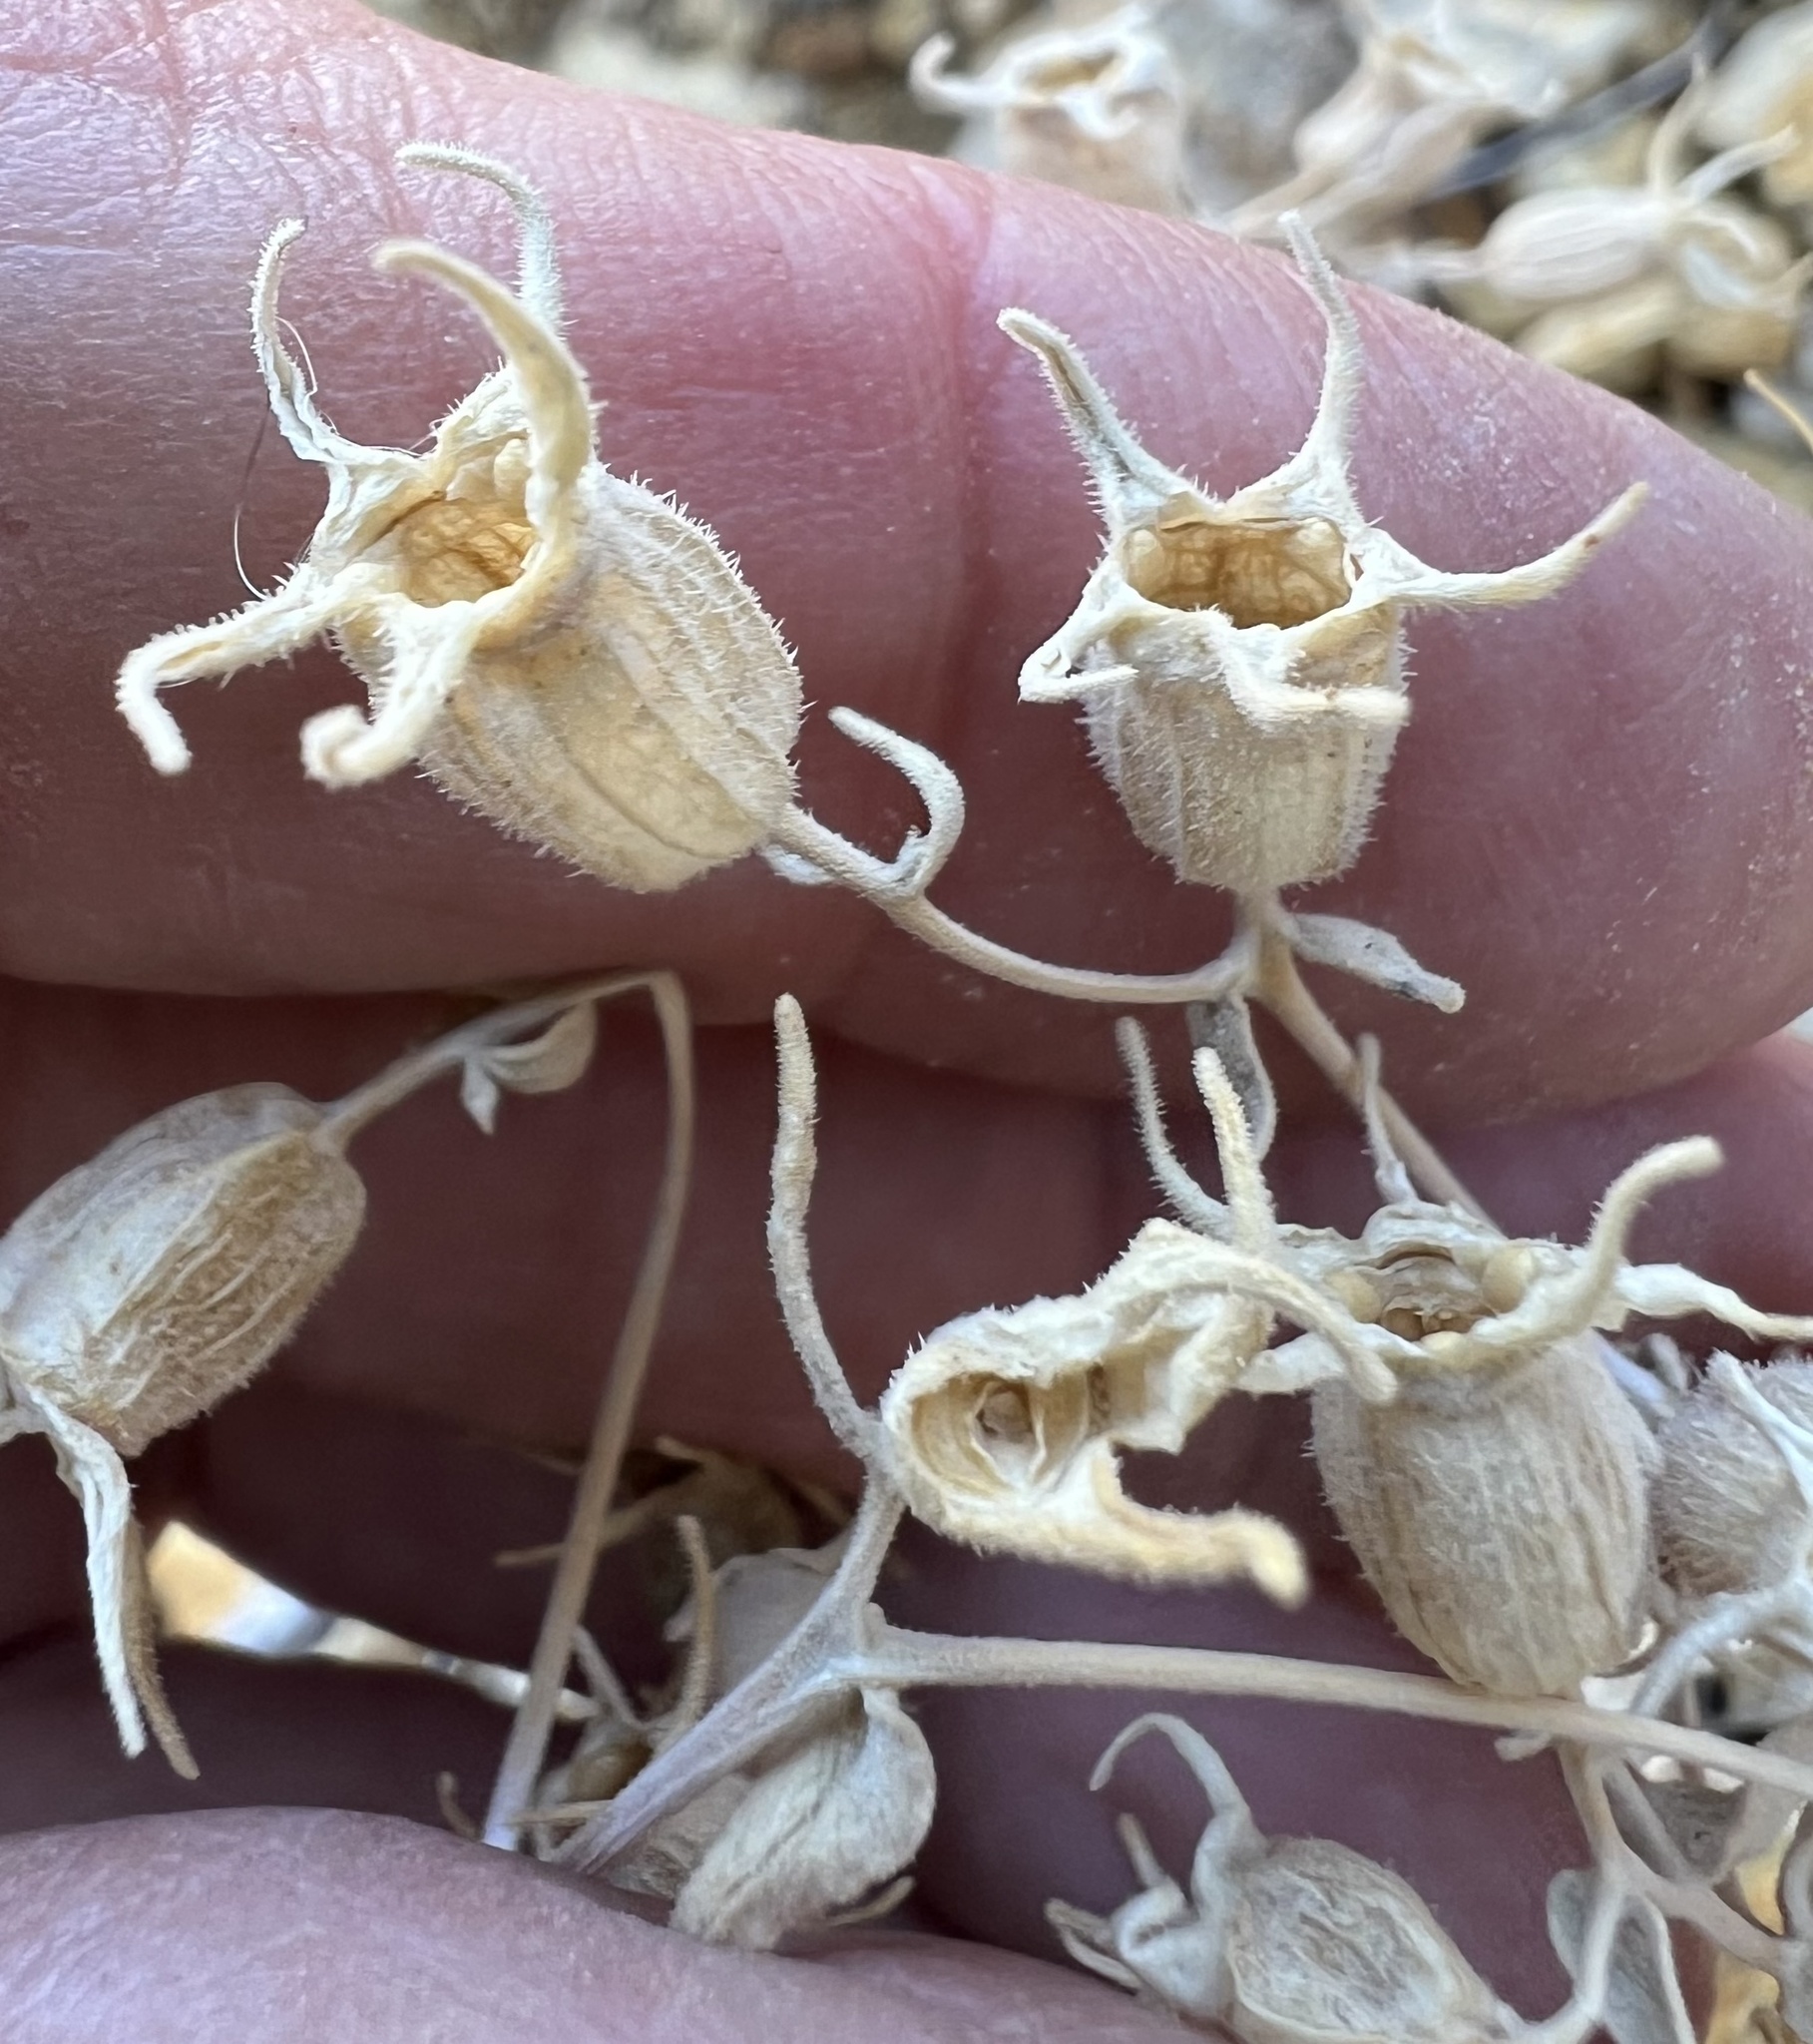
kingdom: Plantae
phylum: Tracheophyta
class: Magnoliopsida
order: Cornales
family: Loasaceae
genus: Mentzelia
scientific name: Mentzelia oreophila
